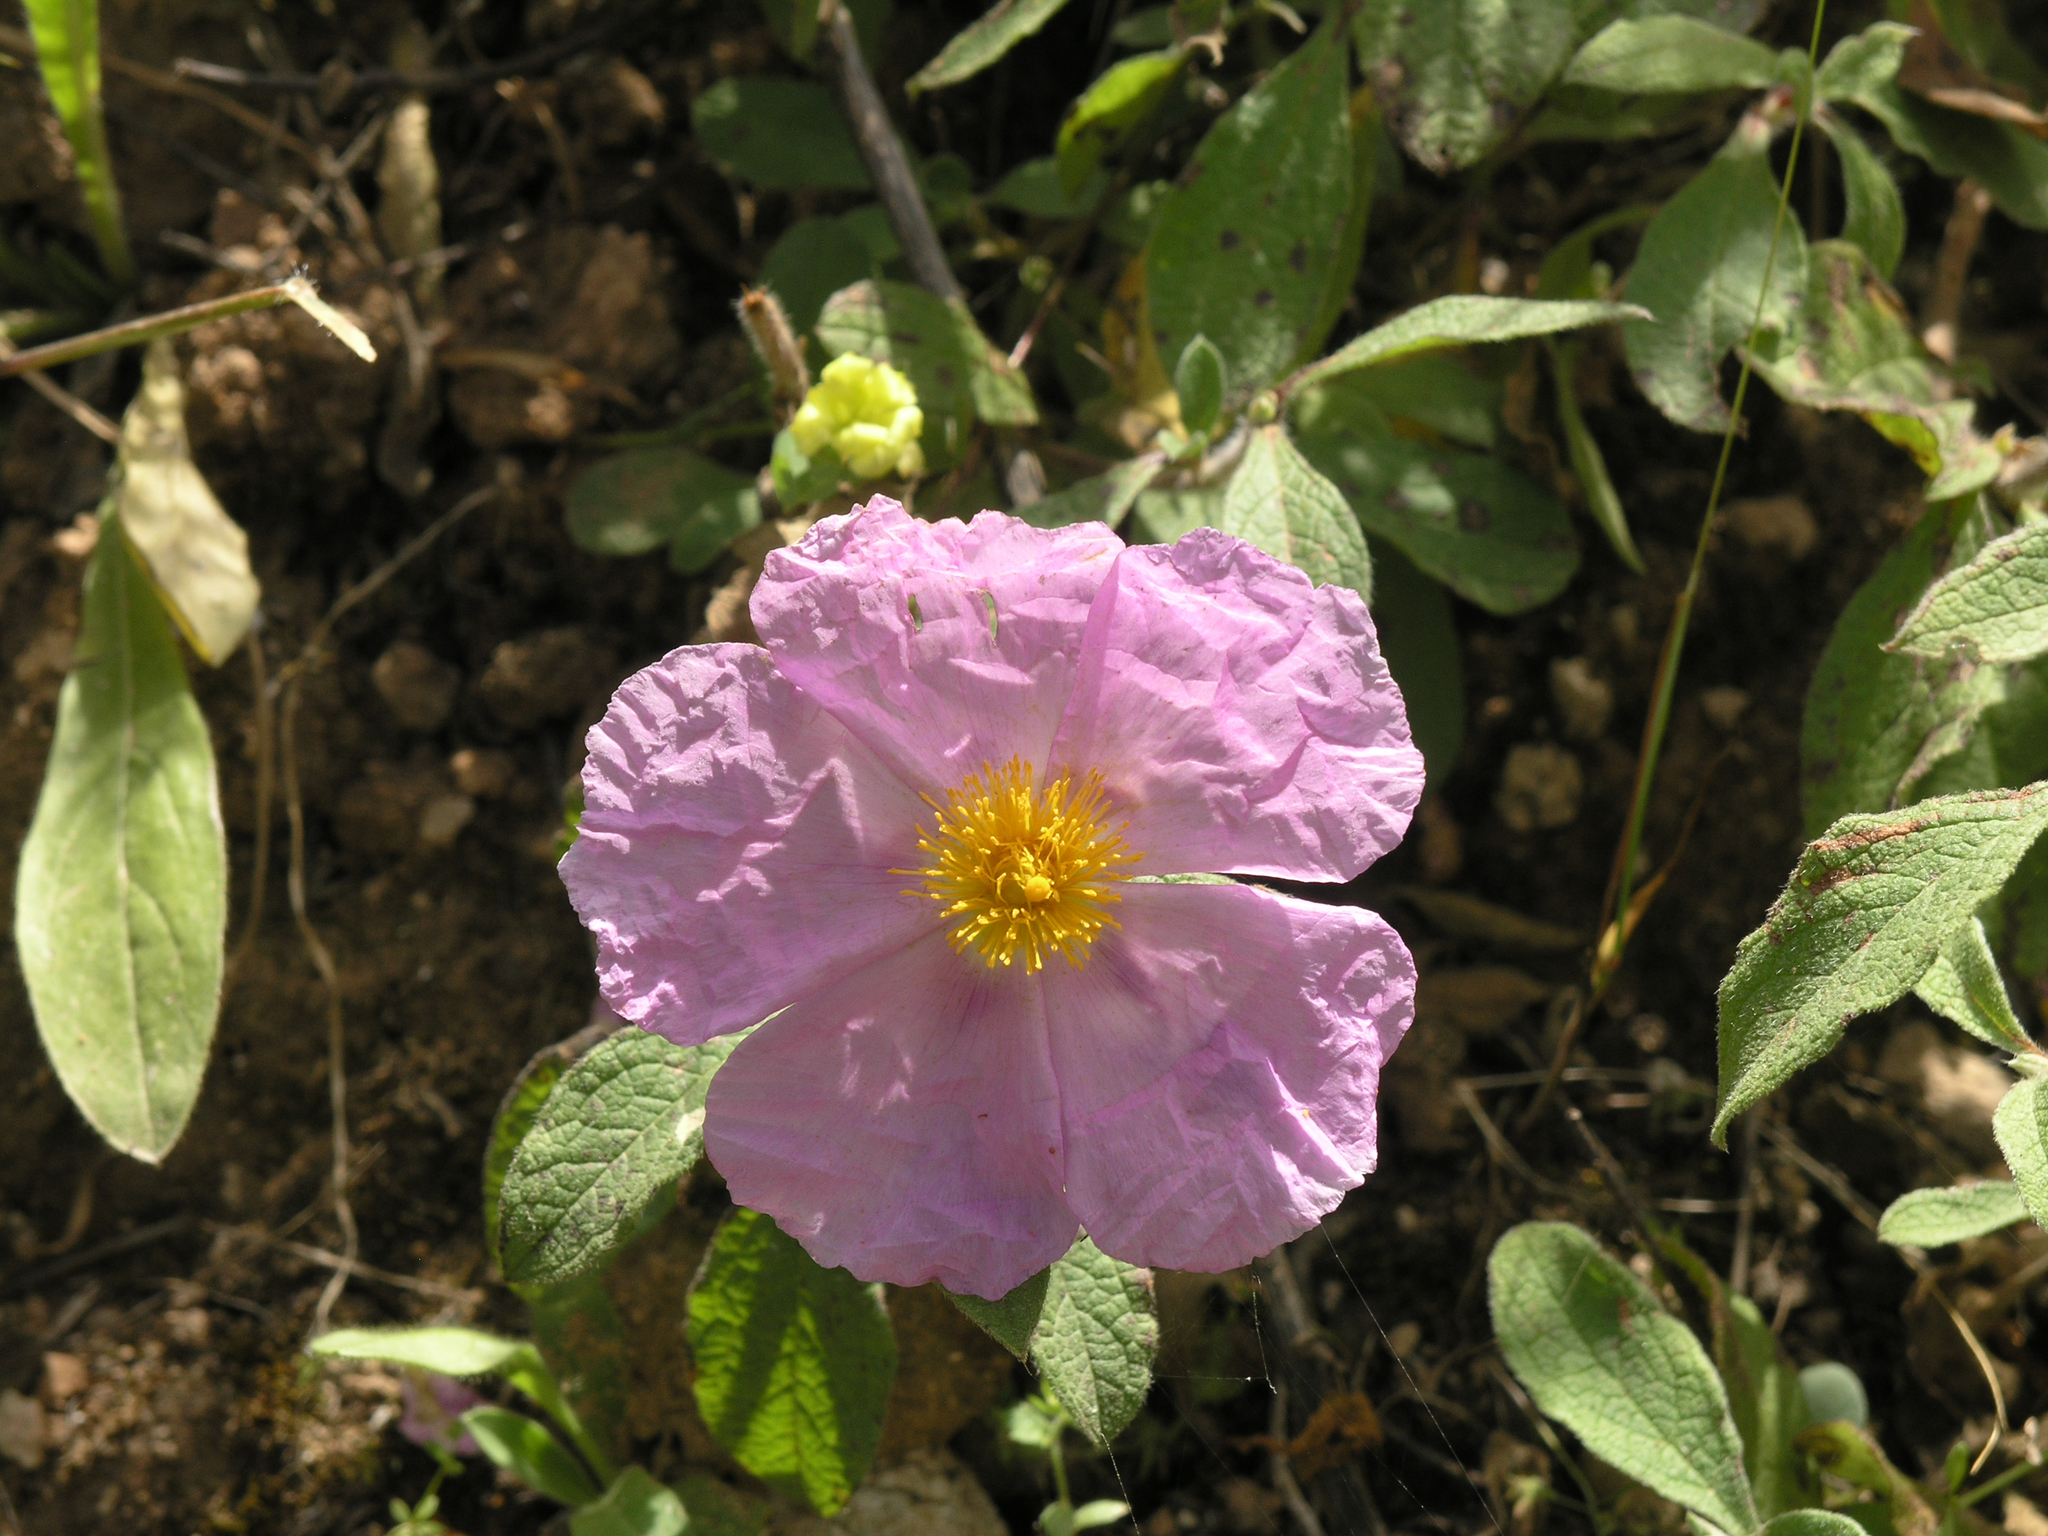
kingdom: Plantae
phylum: Tracheophyta
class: Magnoliopsida
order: Malvales
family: Cistaceae
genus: Cistus
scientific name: Cistus creticus
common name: Cretan rockrose
